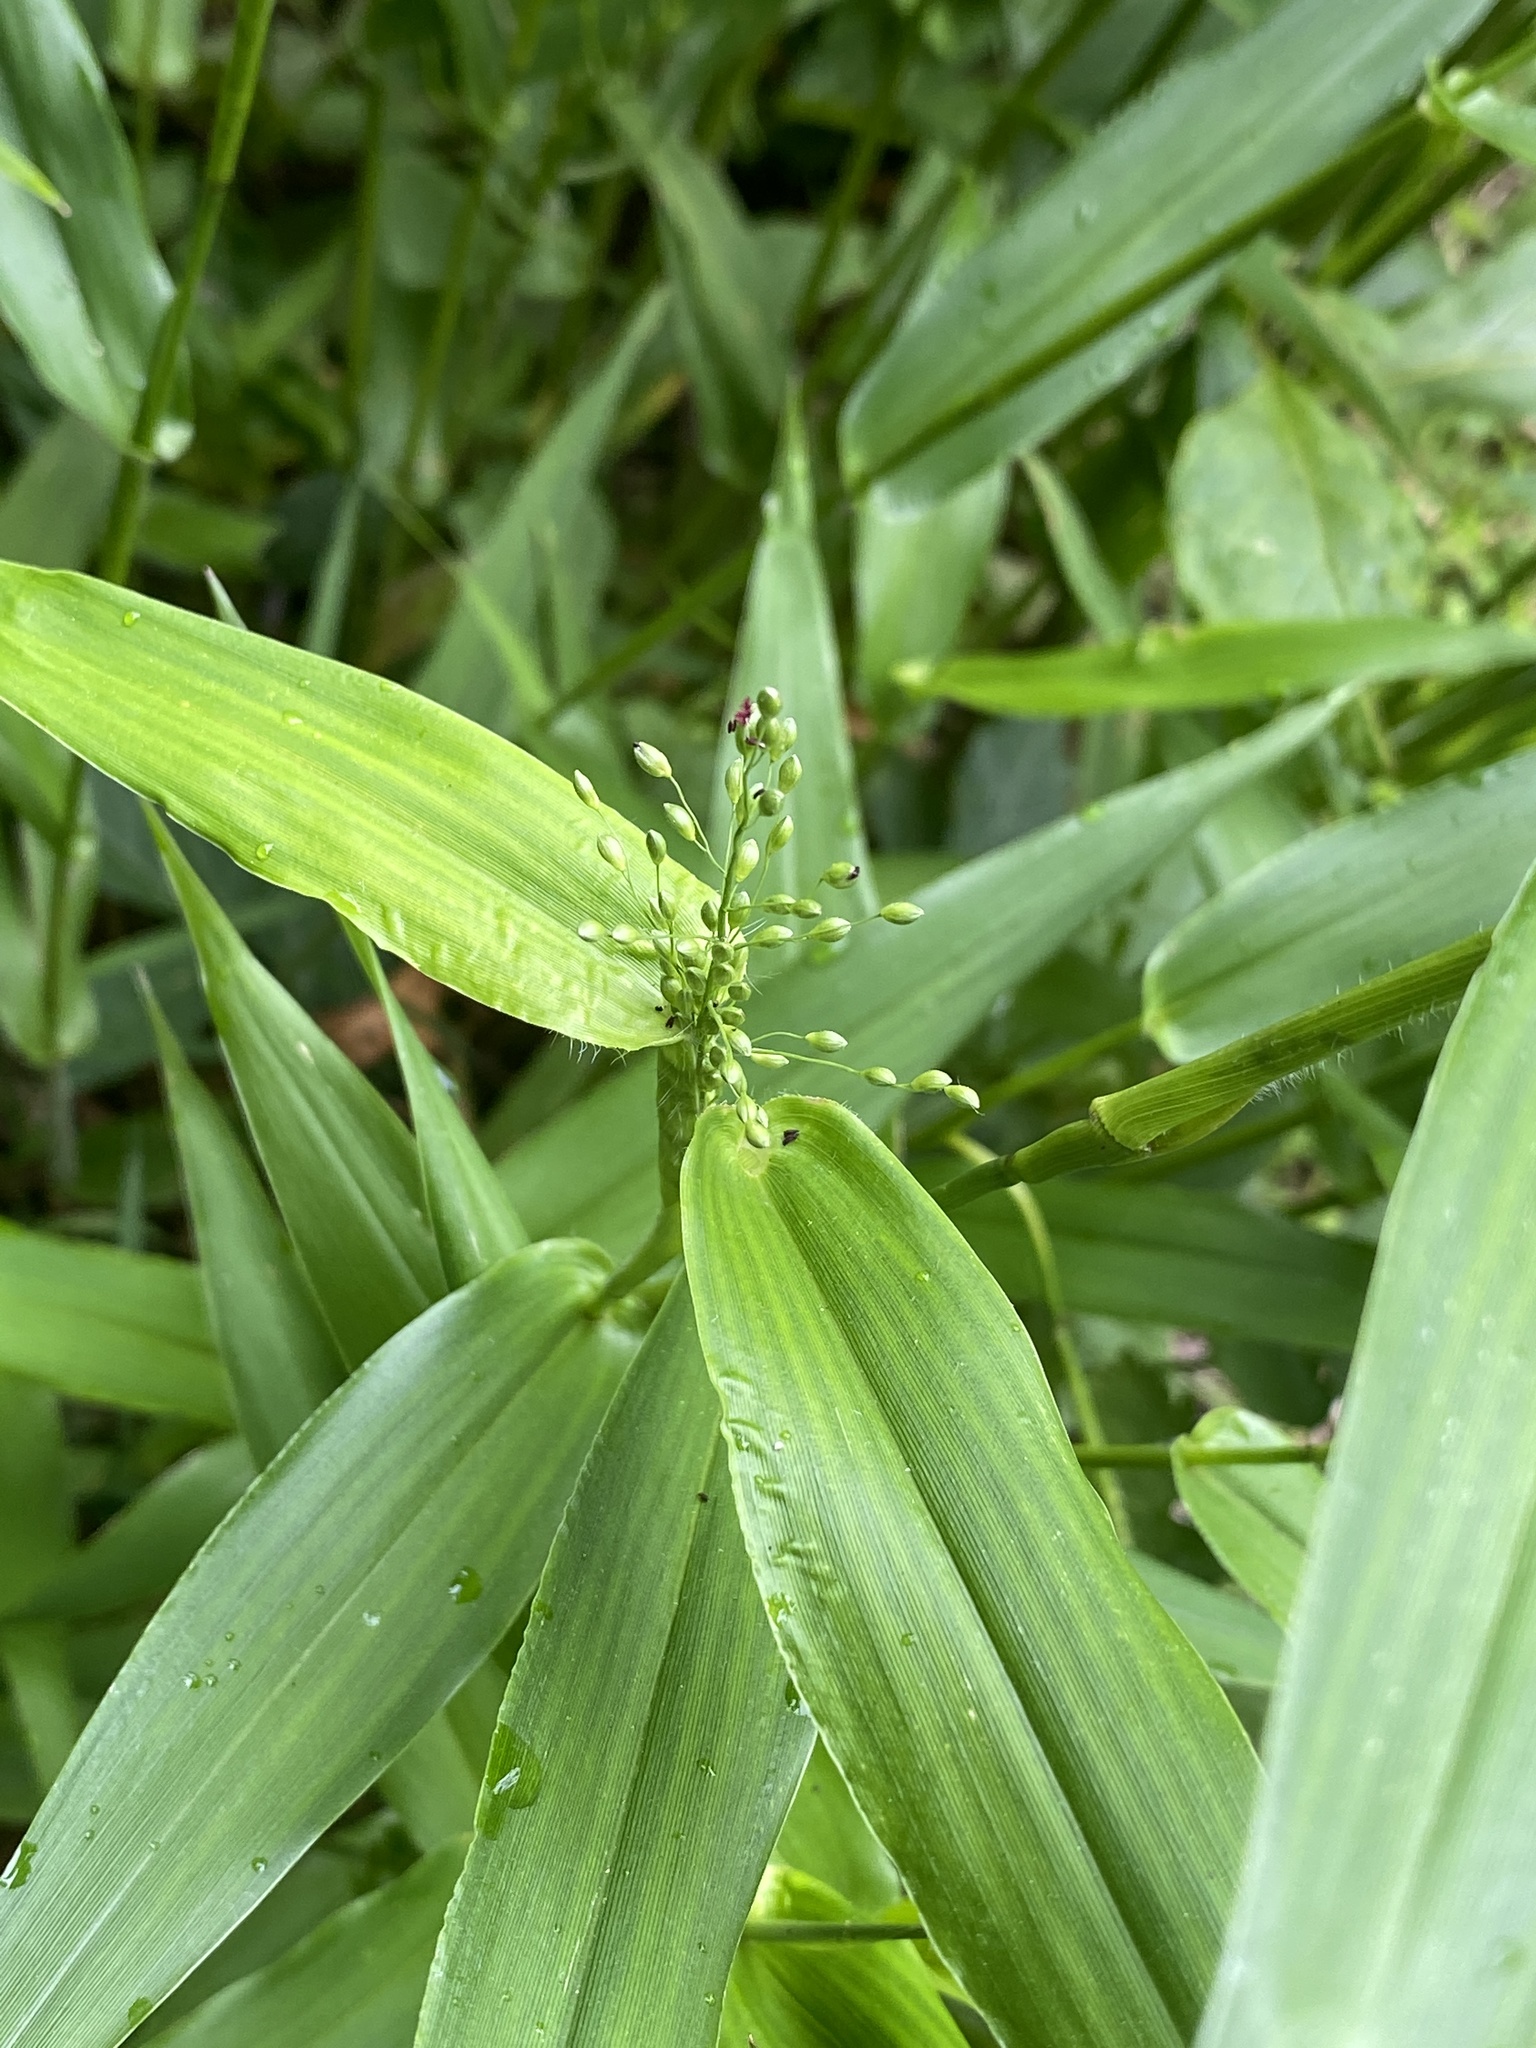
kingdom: Plantae
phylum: Tracheophyta
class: Liliopsida
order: Poales
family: Poaceae
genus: Dichanthelium
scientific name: Dichanthelium clandestinum
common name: Deer-tongue grass
